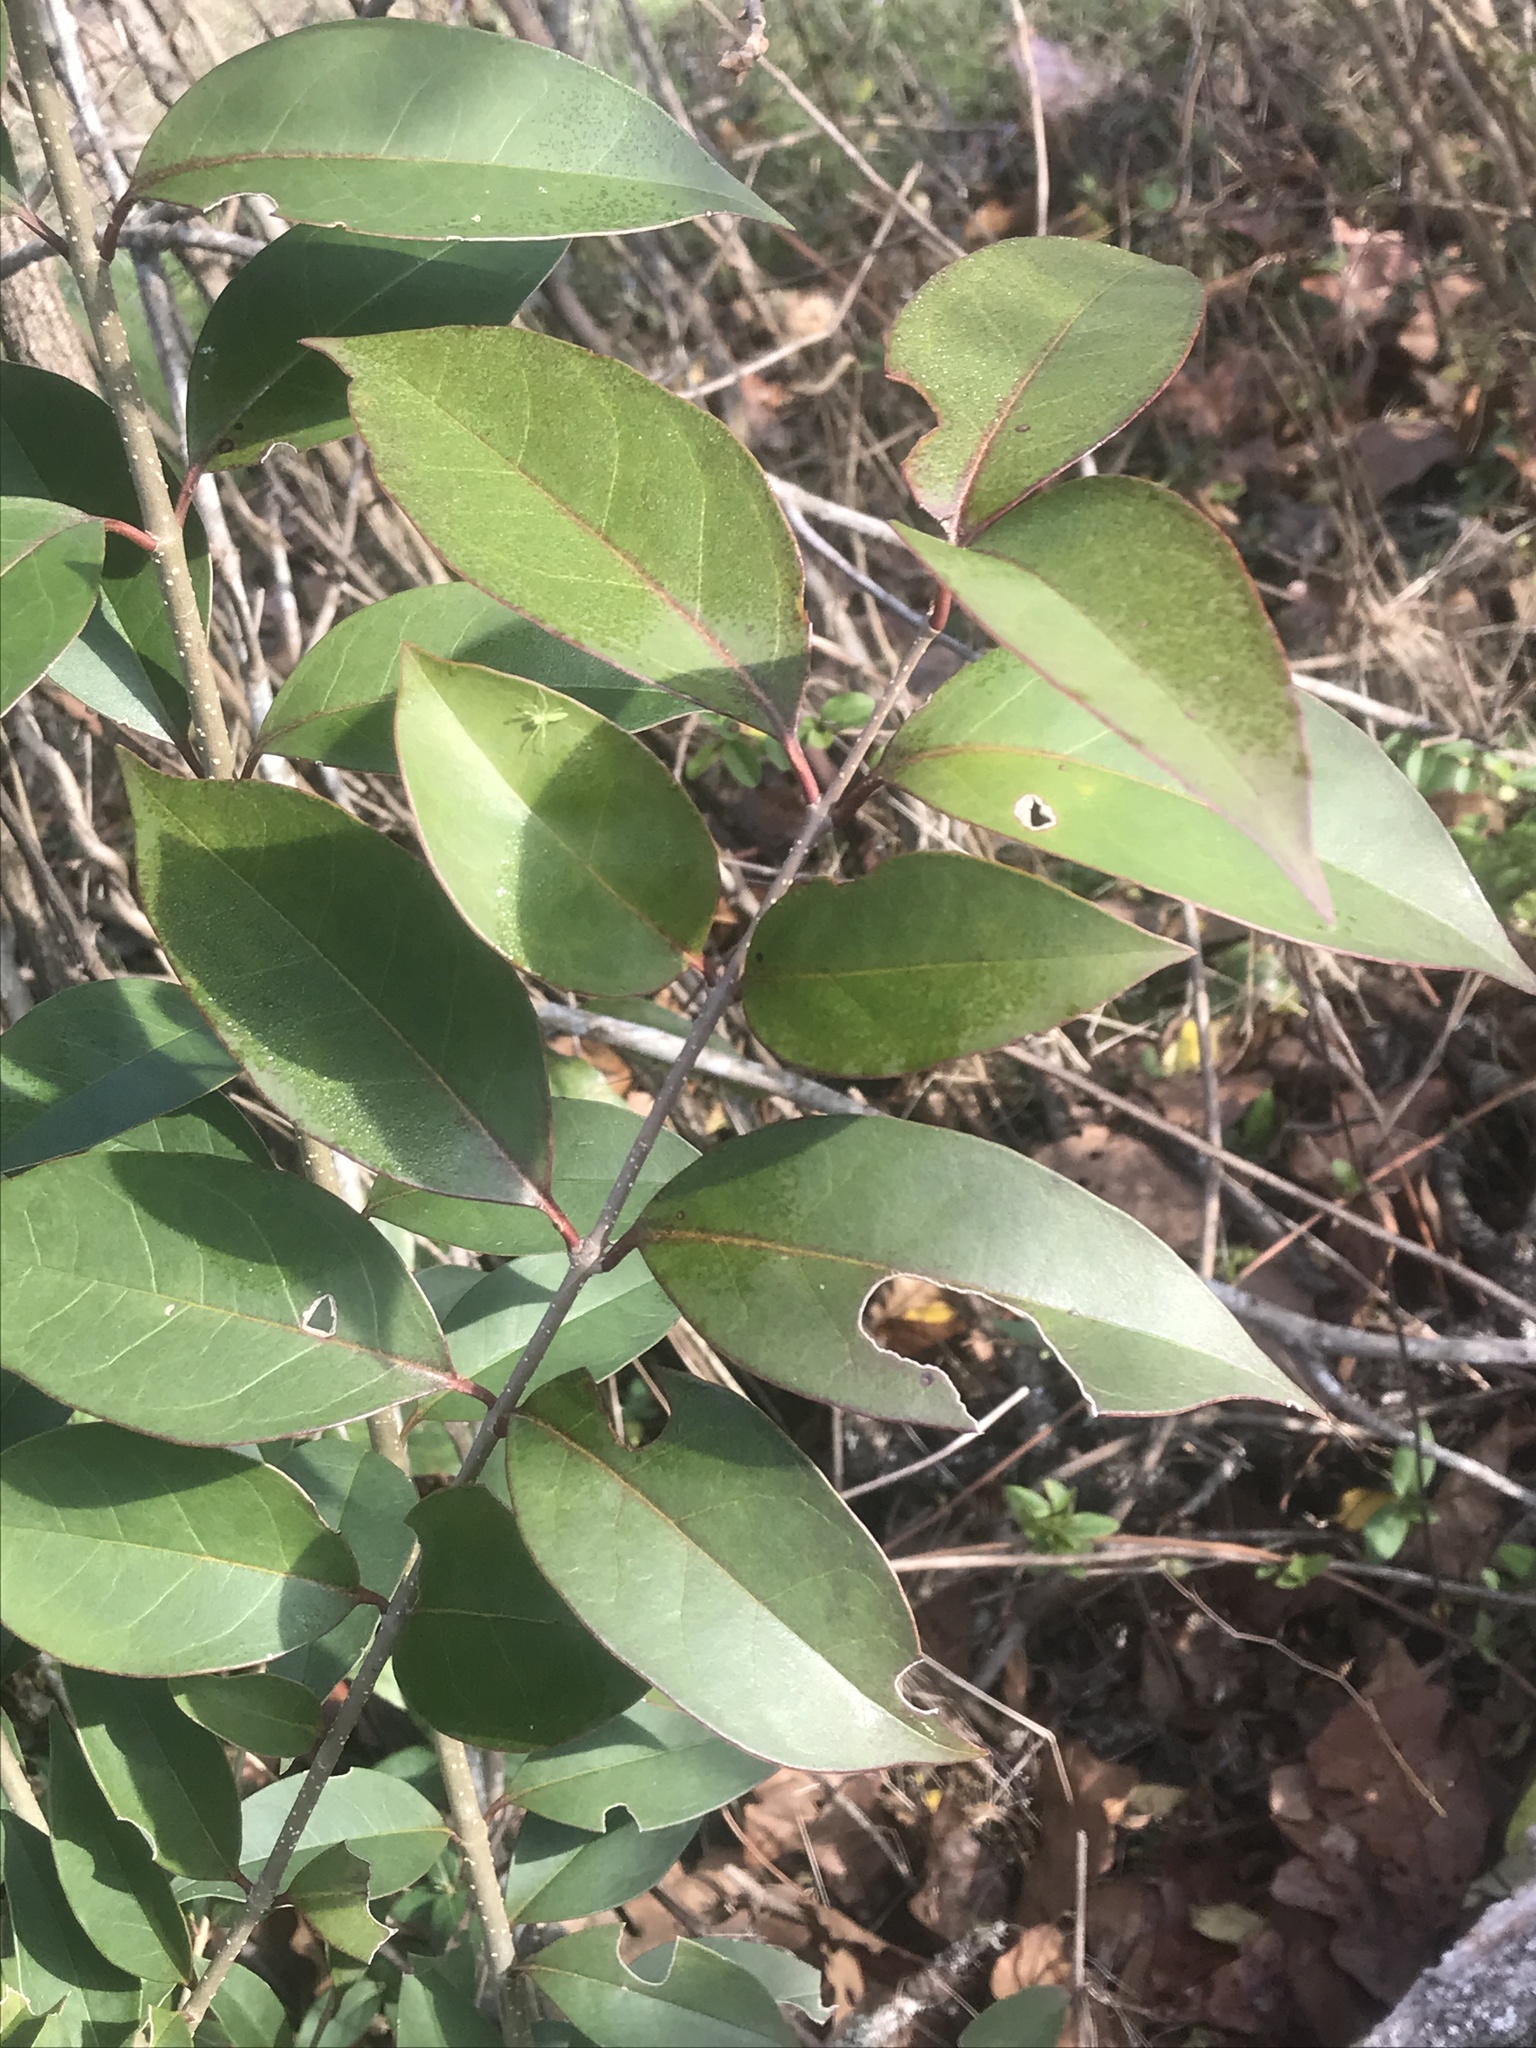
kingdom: Plantae
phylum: Tracheophyta
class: Magnoliopsida
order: Lamiales
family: Oleaceae
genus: Ligustrum
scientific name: Ligustrum lucidum
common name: Glossy privet
